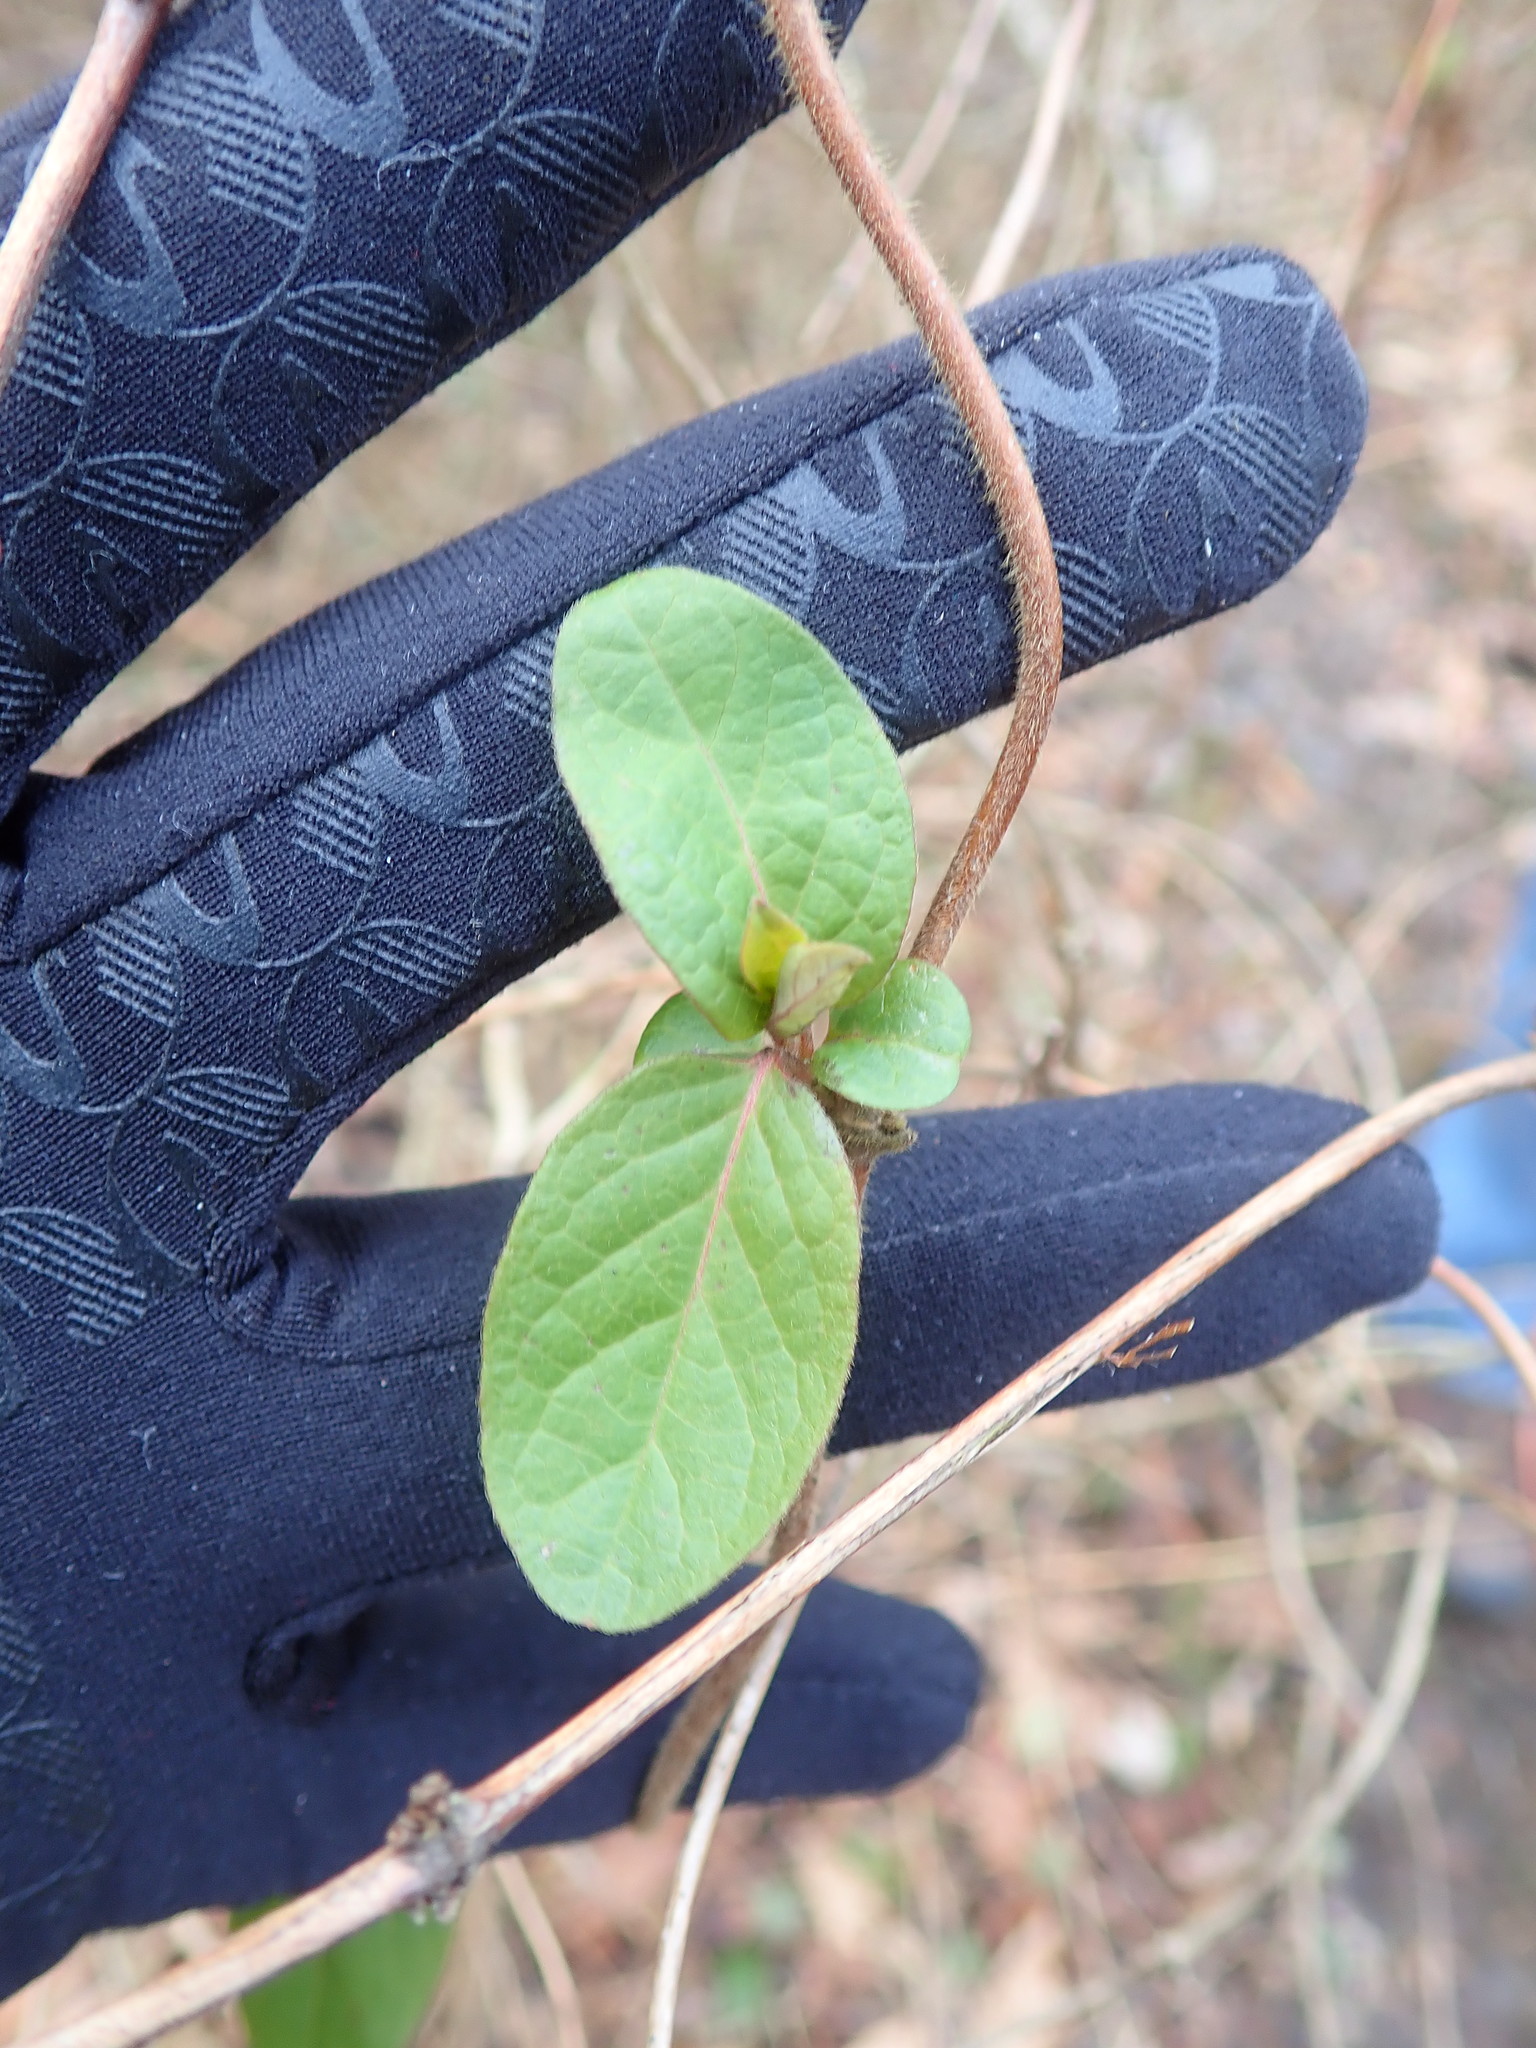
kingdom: Plantae
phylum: Tracheophyta
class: Magnoliopsida
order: Dipsacales
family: Caprifoliaceae
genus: Lonicera
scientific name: Lonicera japonica
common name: Japanese honeysuckle
